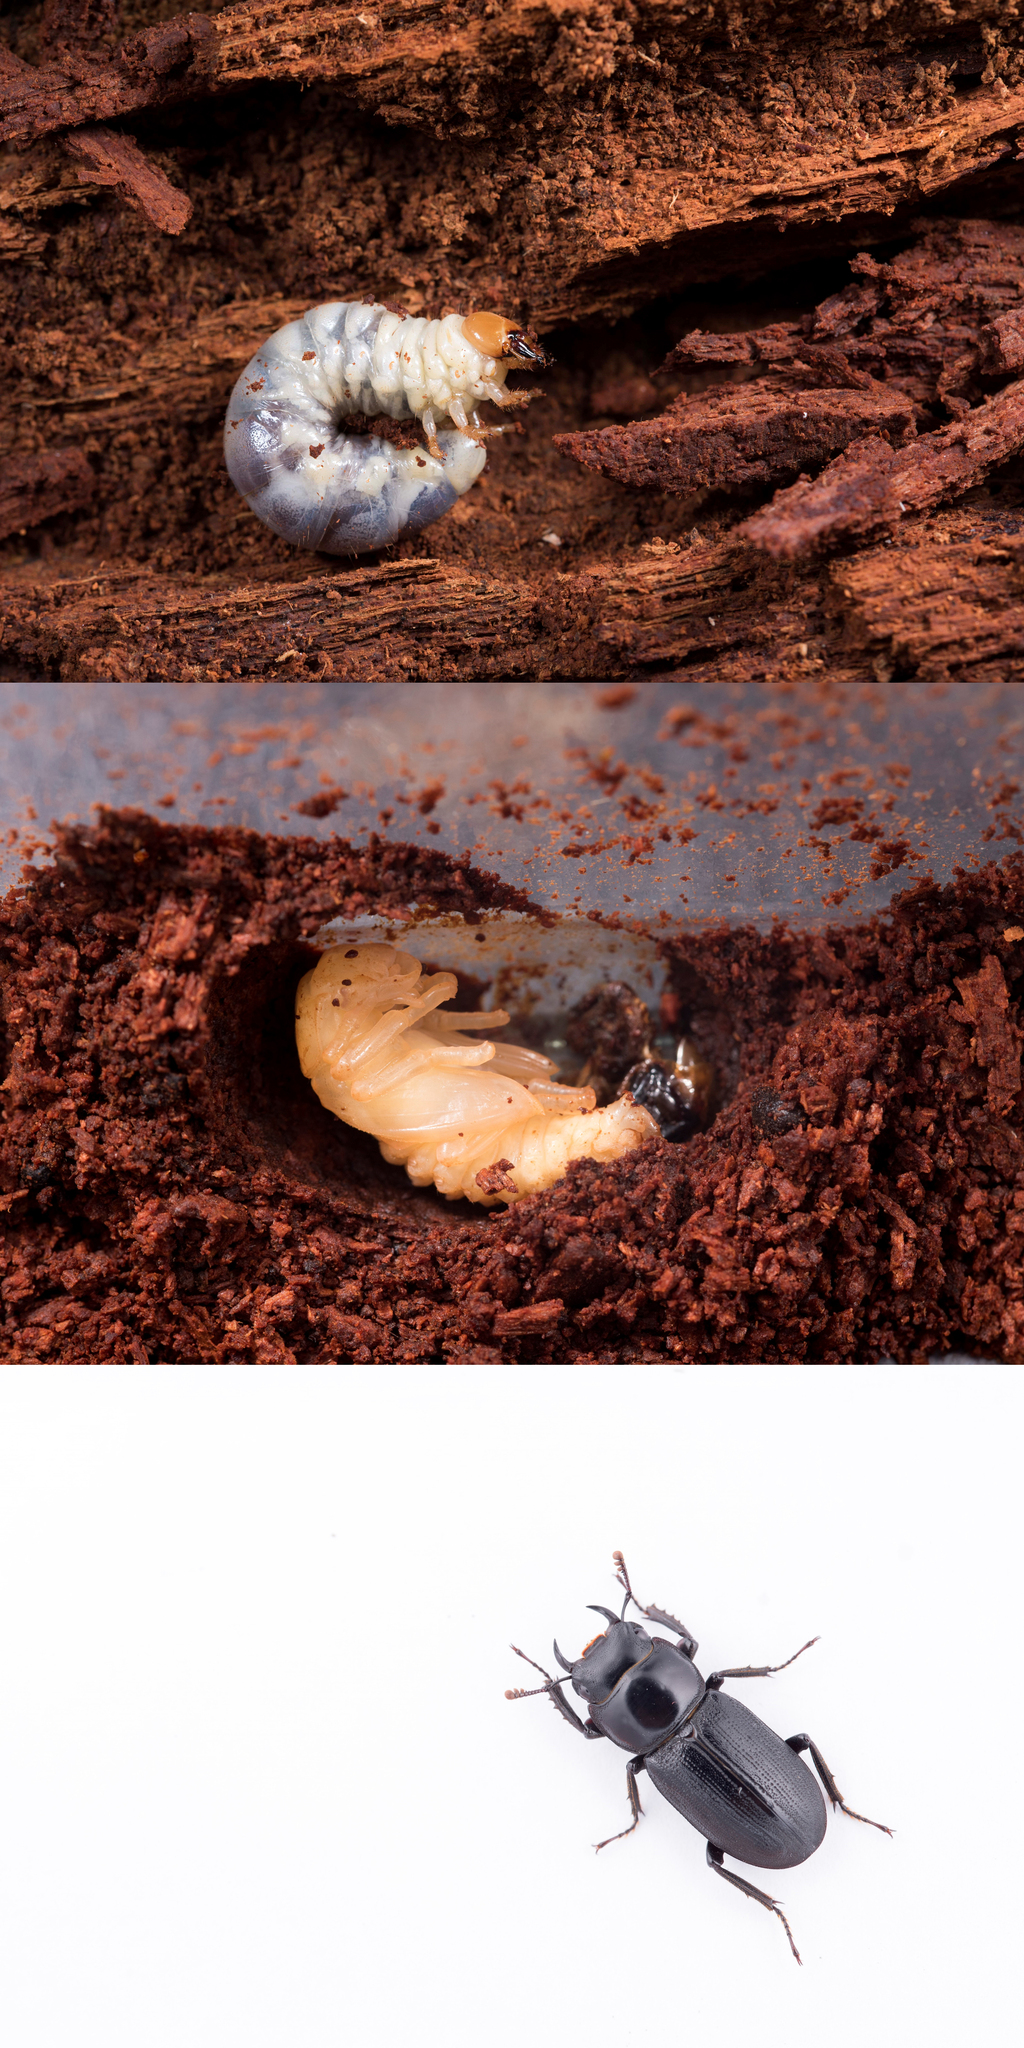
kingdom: Animalia
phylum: Arthropoda
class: Insecta
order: Coleoptera
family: Lucanidae
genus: Dorcus
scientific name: Dorcus yaksha
